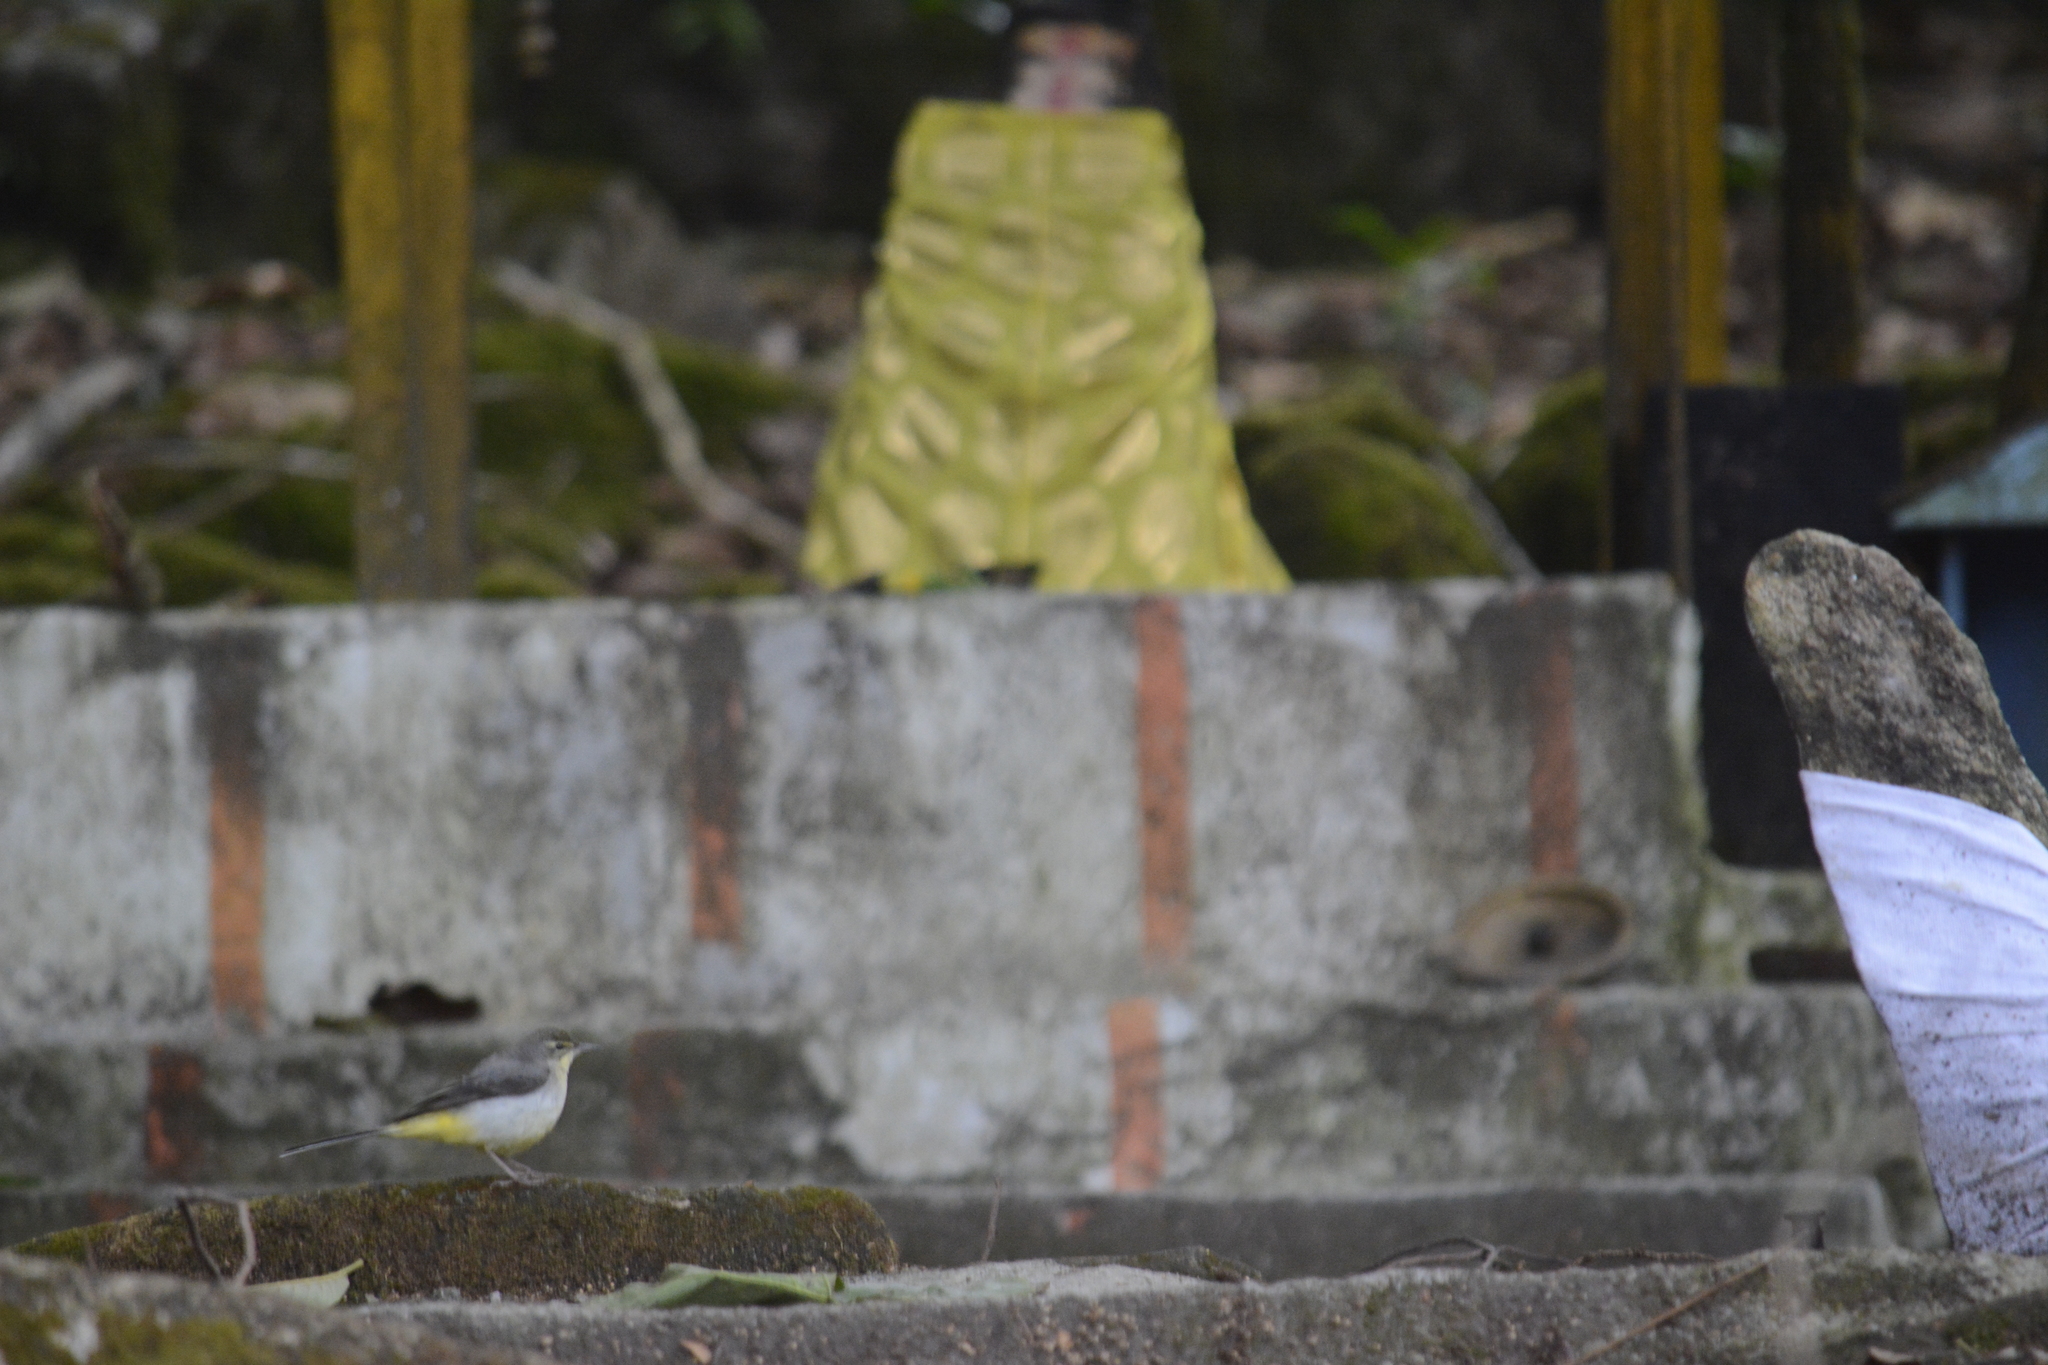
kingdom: Animalia
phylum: Chordata
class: Aves
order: Passeriformes
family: Motacillidae
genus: Motacilla
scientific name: Motacilla cinerea
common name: Grey wagtail
